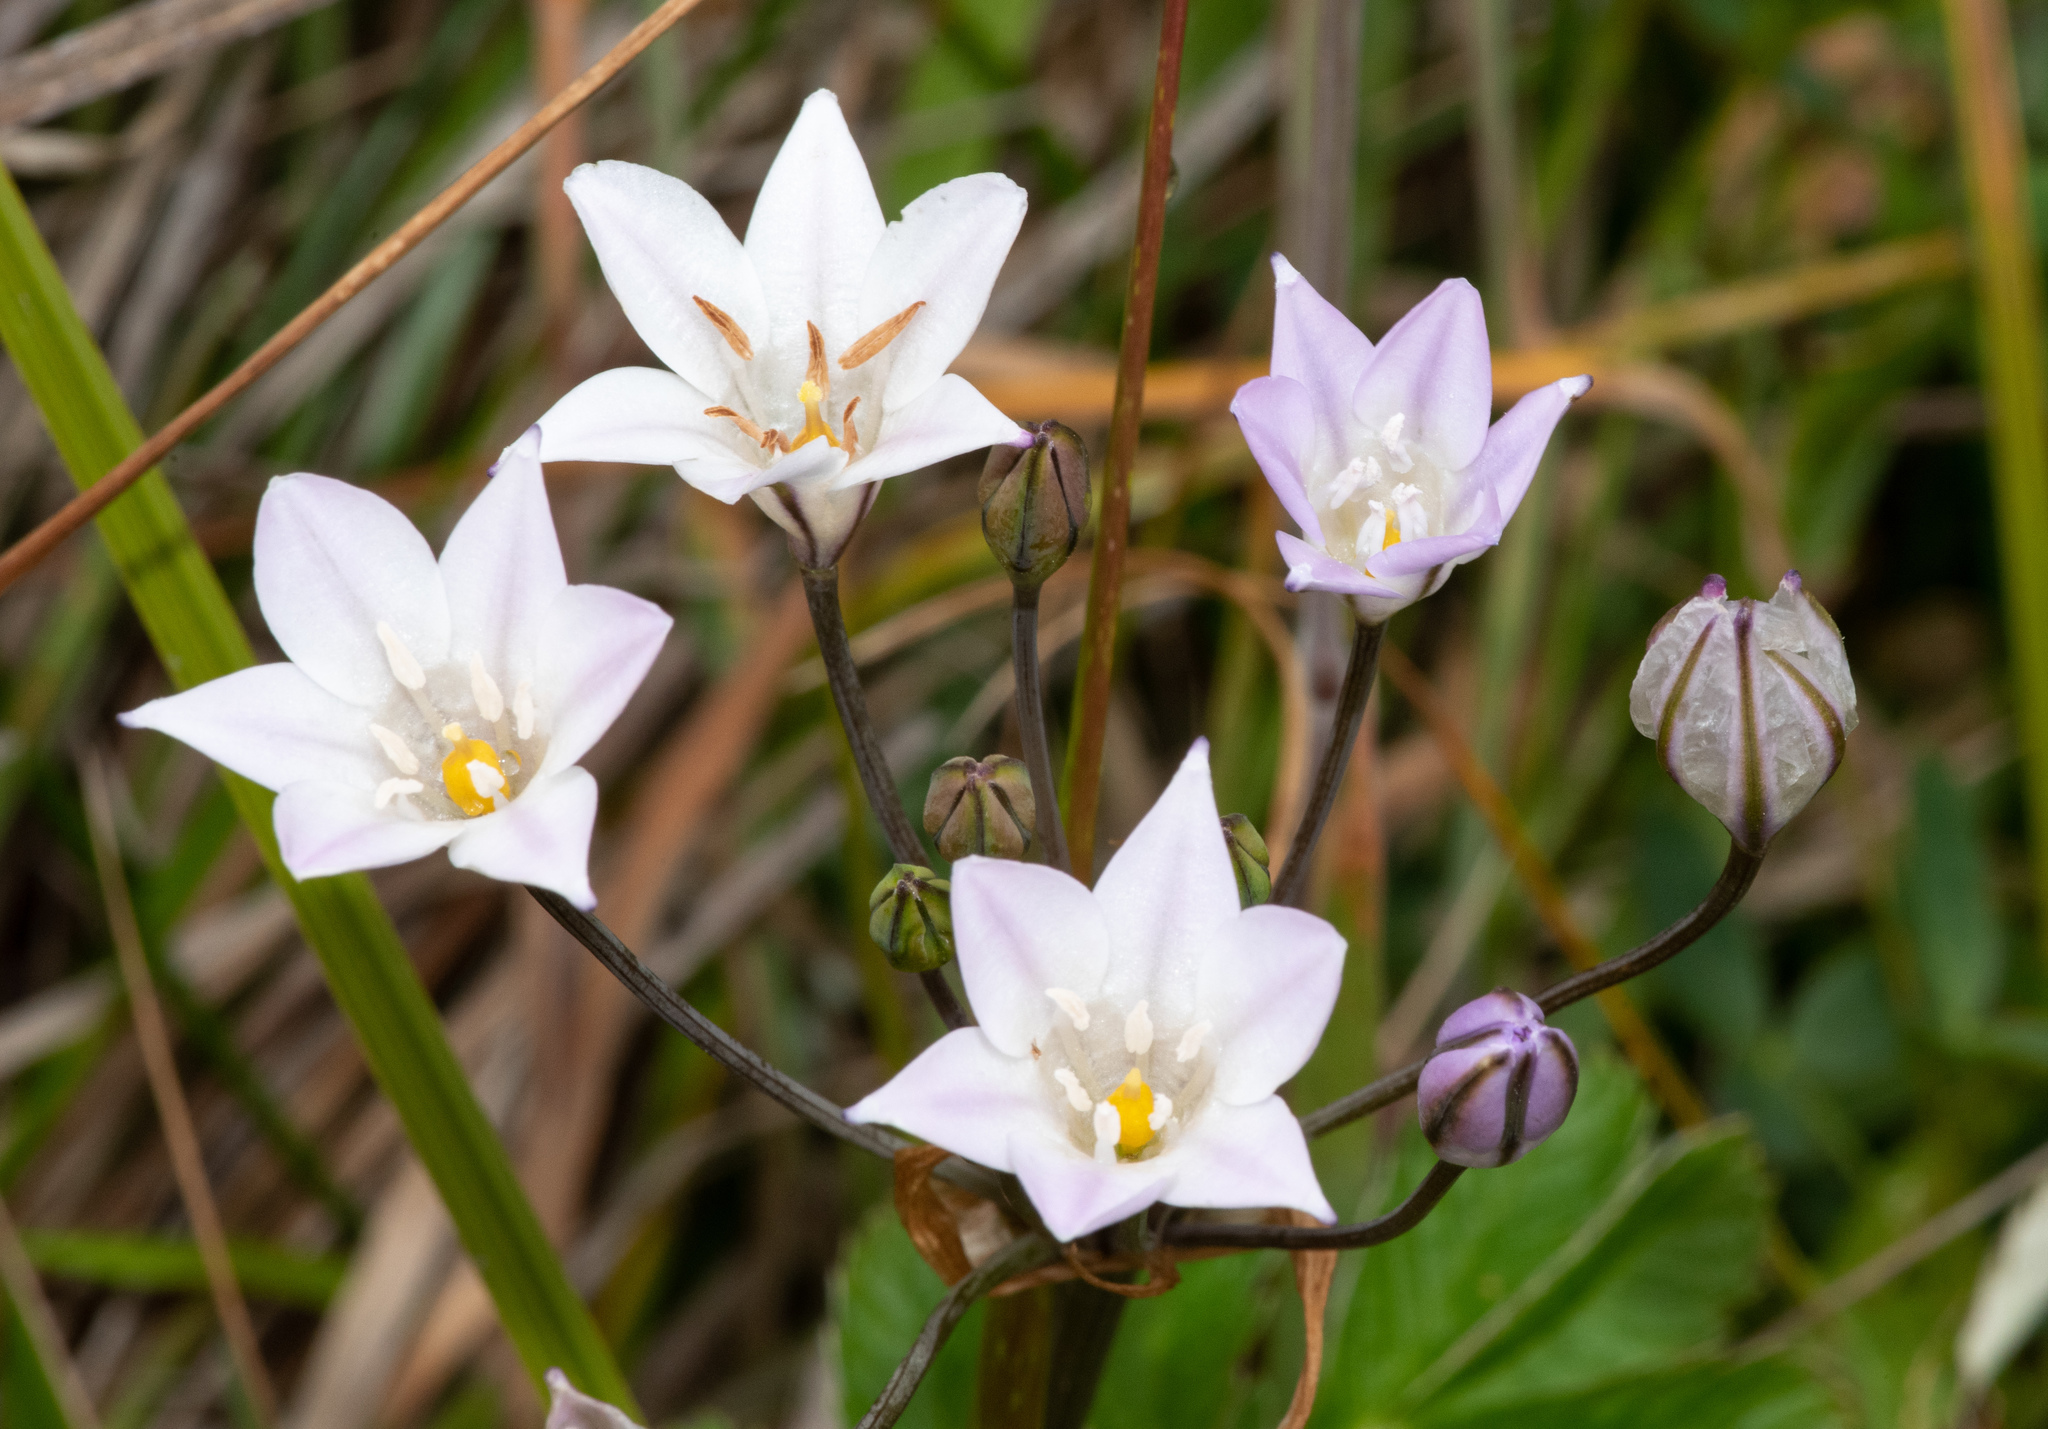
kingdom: Plantae
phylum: Tracheophyta
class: Liliopsida
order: Asparagales
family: Asparagaceae
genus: Triteleia
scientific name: Triteleia peduncularis
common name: Long-ray brodiaea
